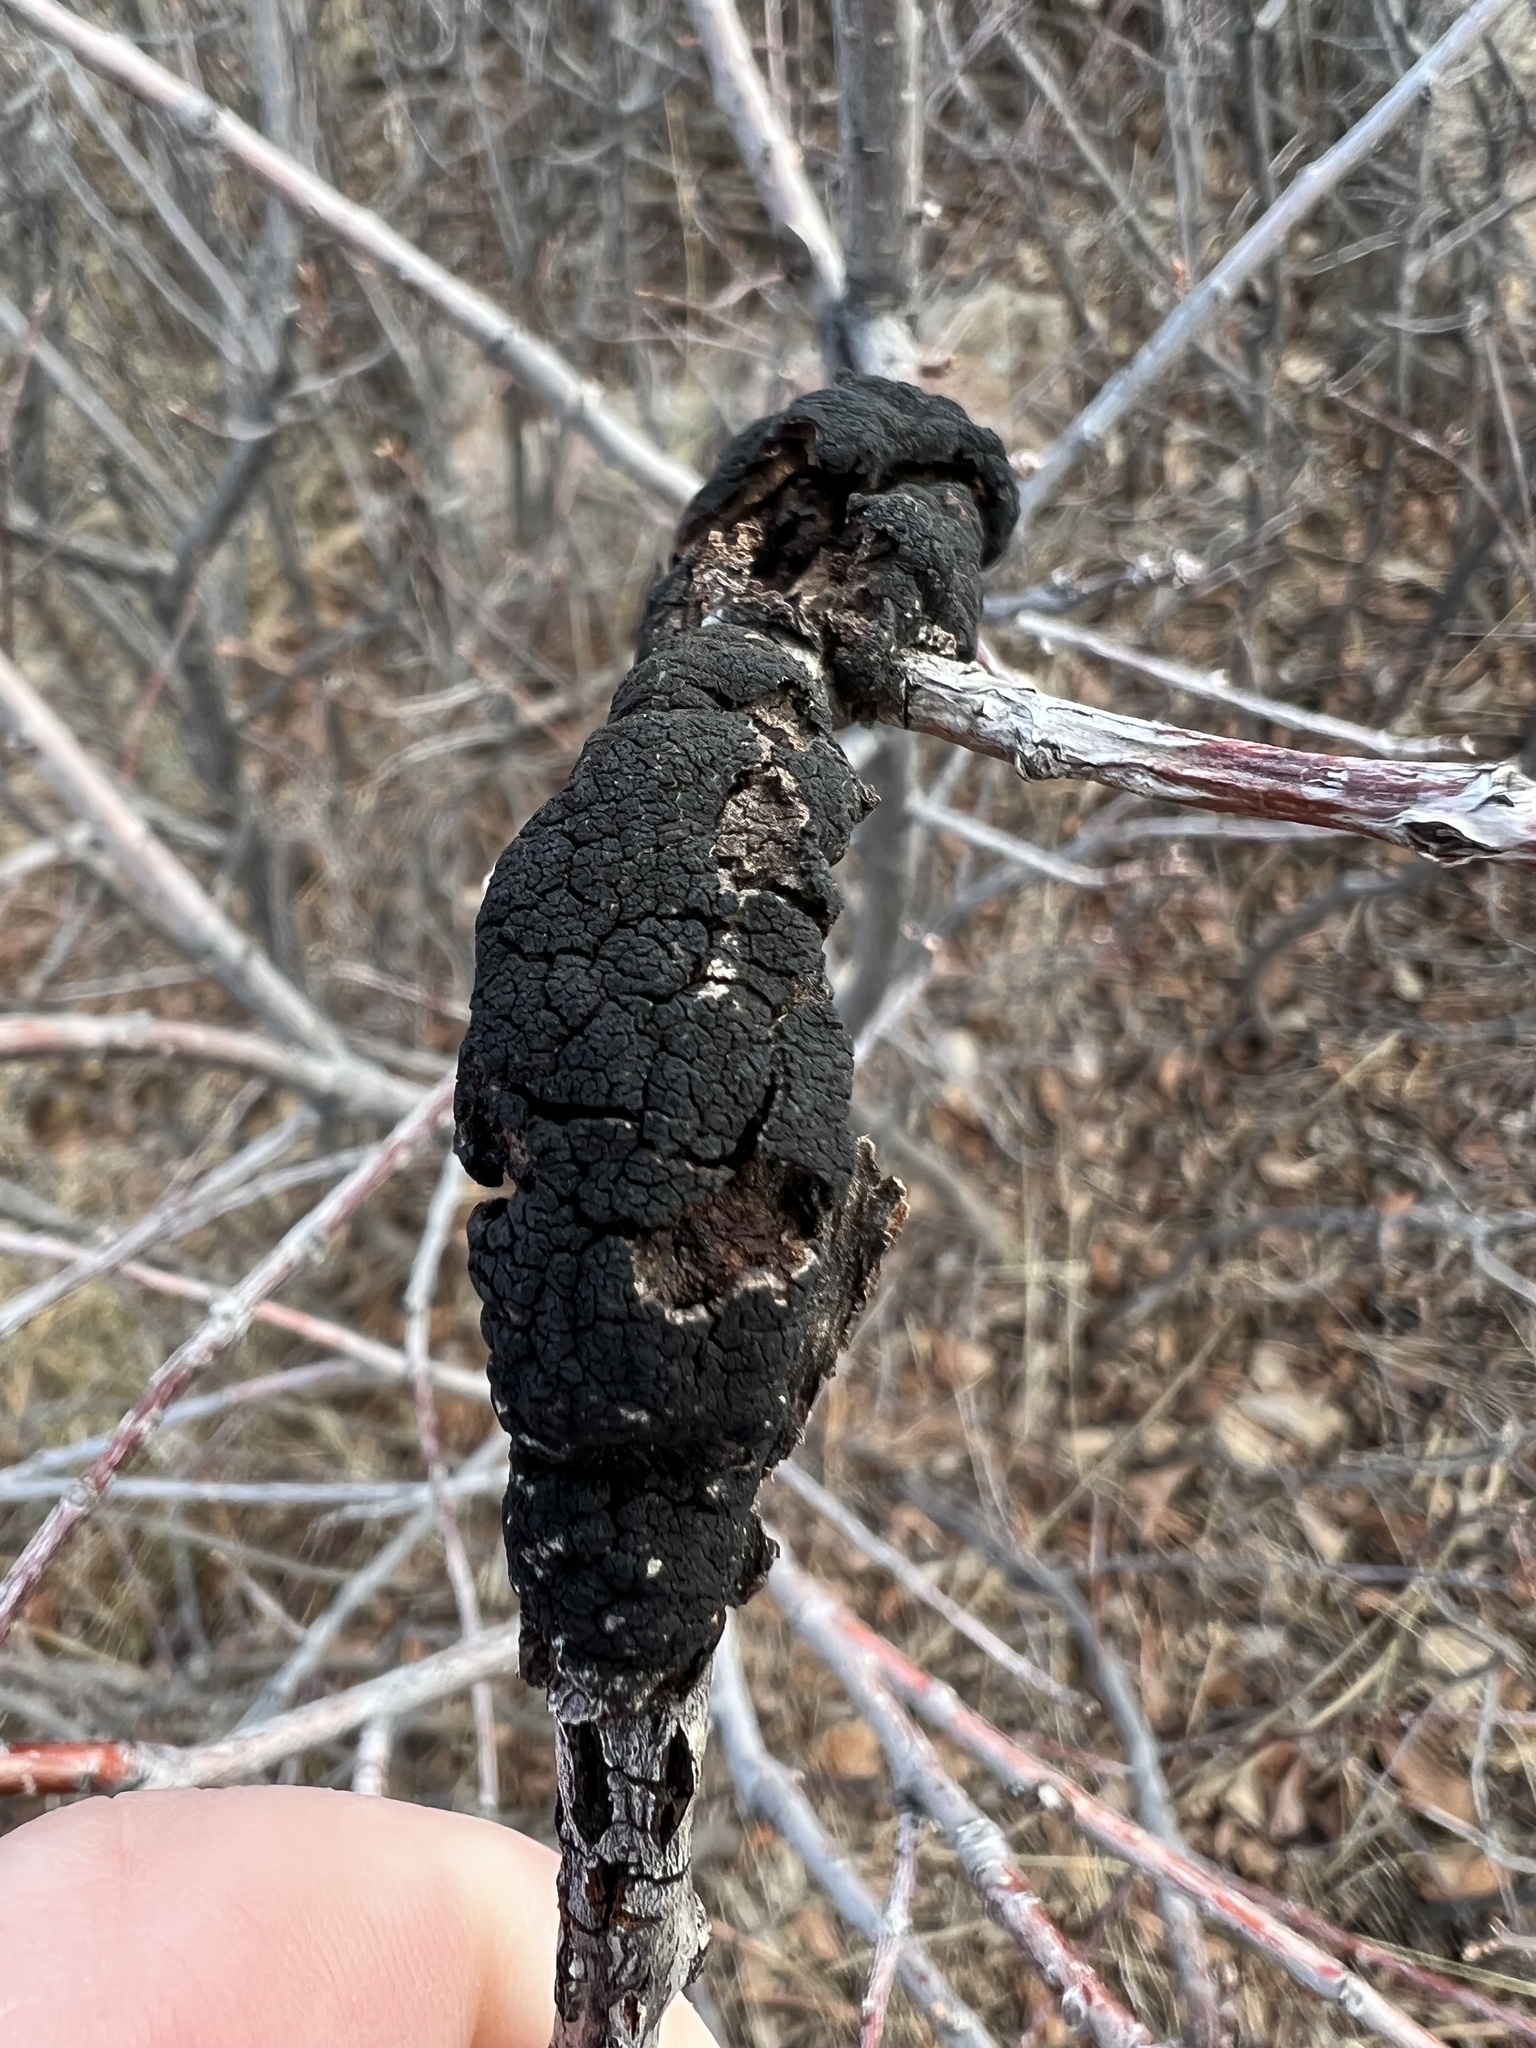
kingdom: Fungi
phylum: Ascomycota
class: Dothideomycetes
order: Venturiales
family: Venturiaceae
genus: Apiosporina
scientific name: Apiosporina morbosa
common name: Black knot
